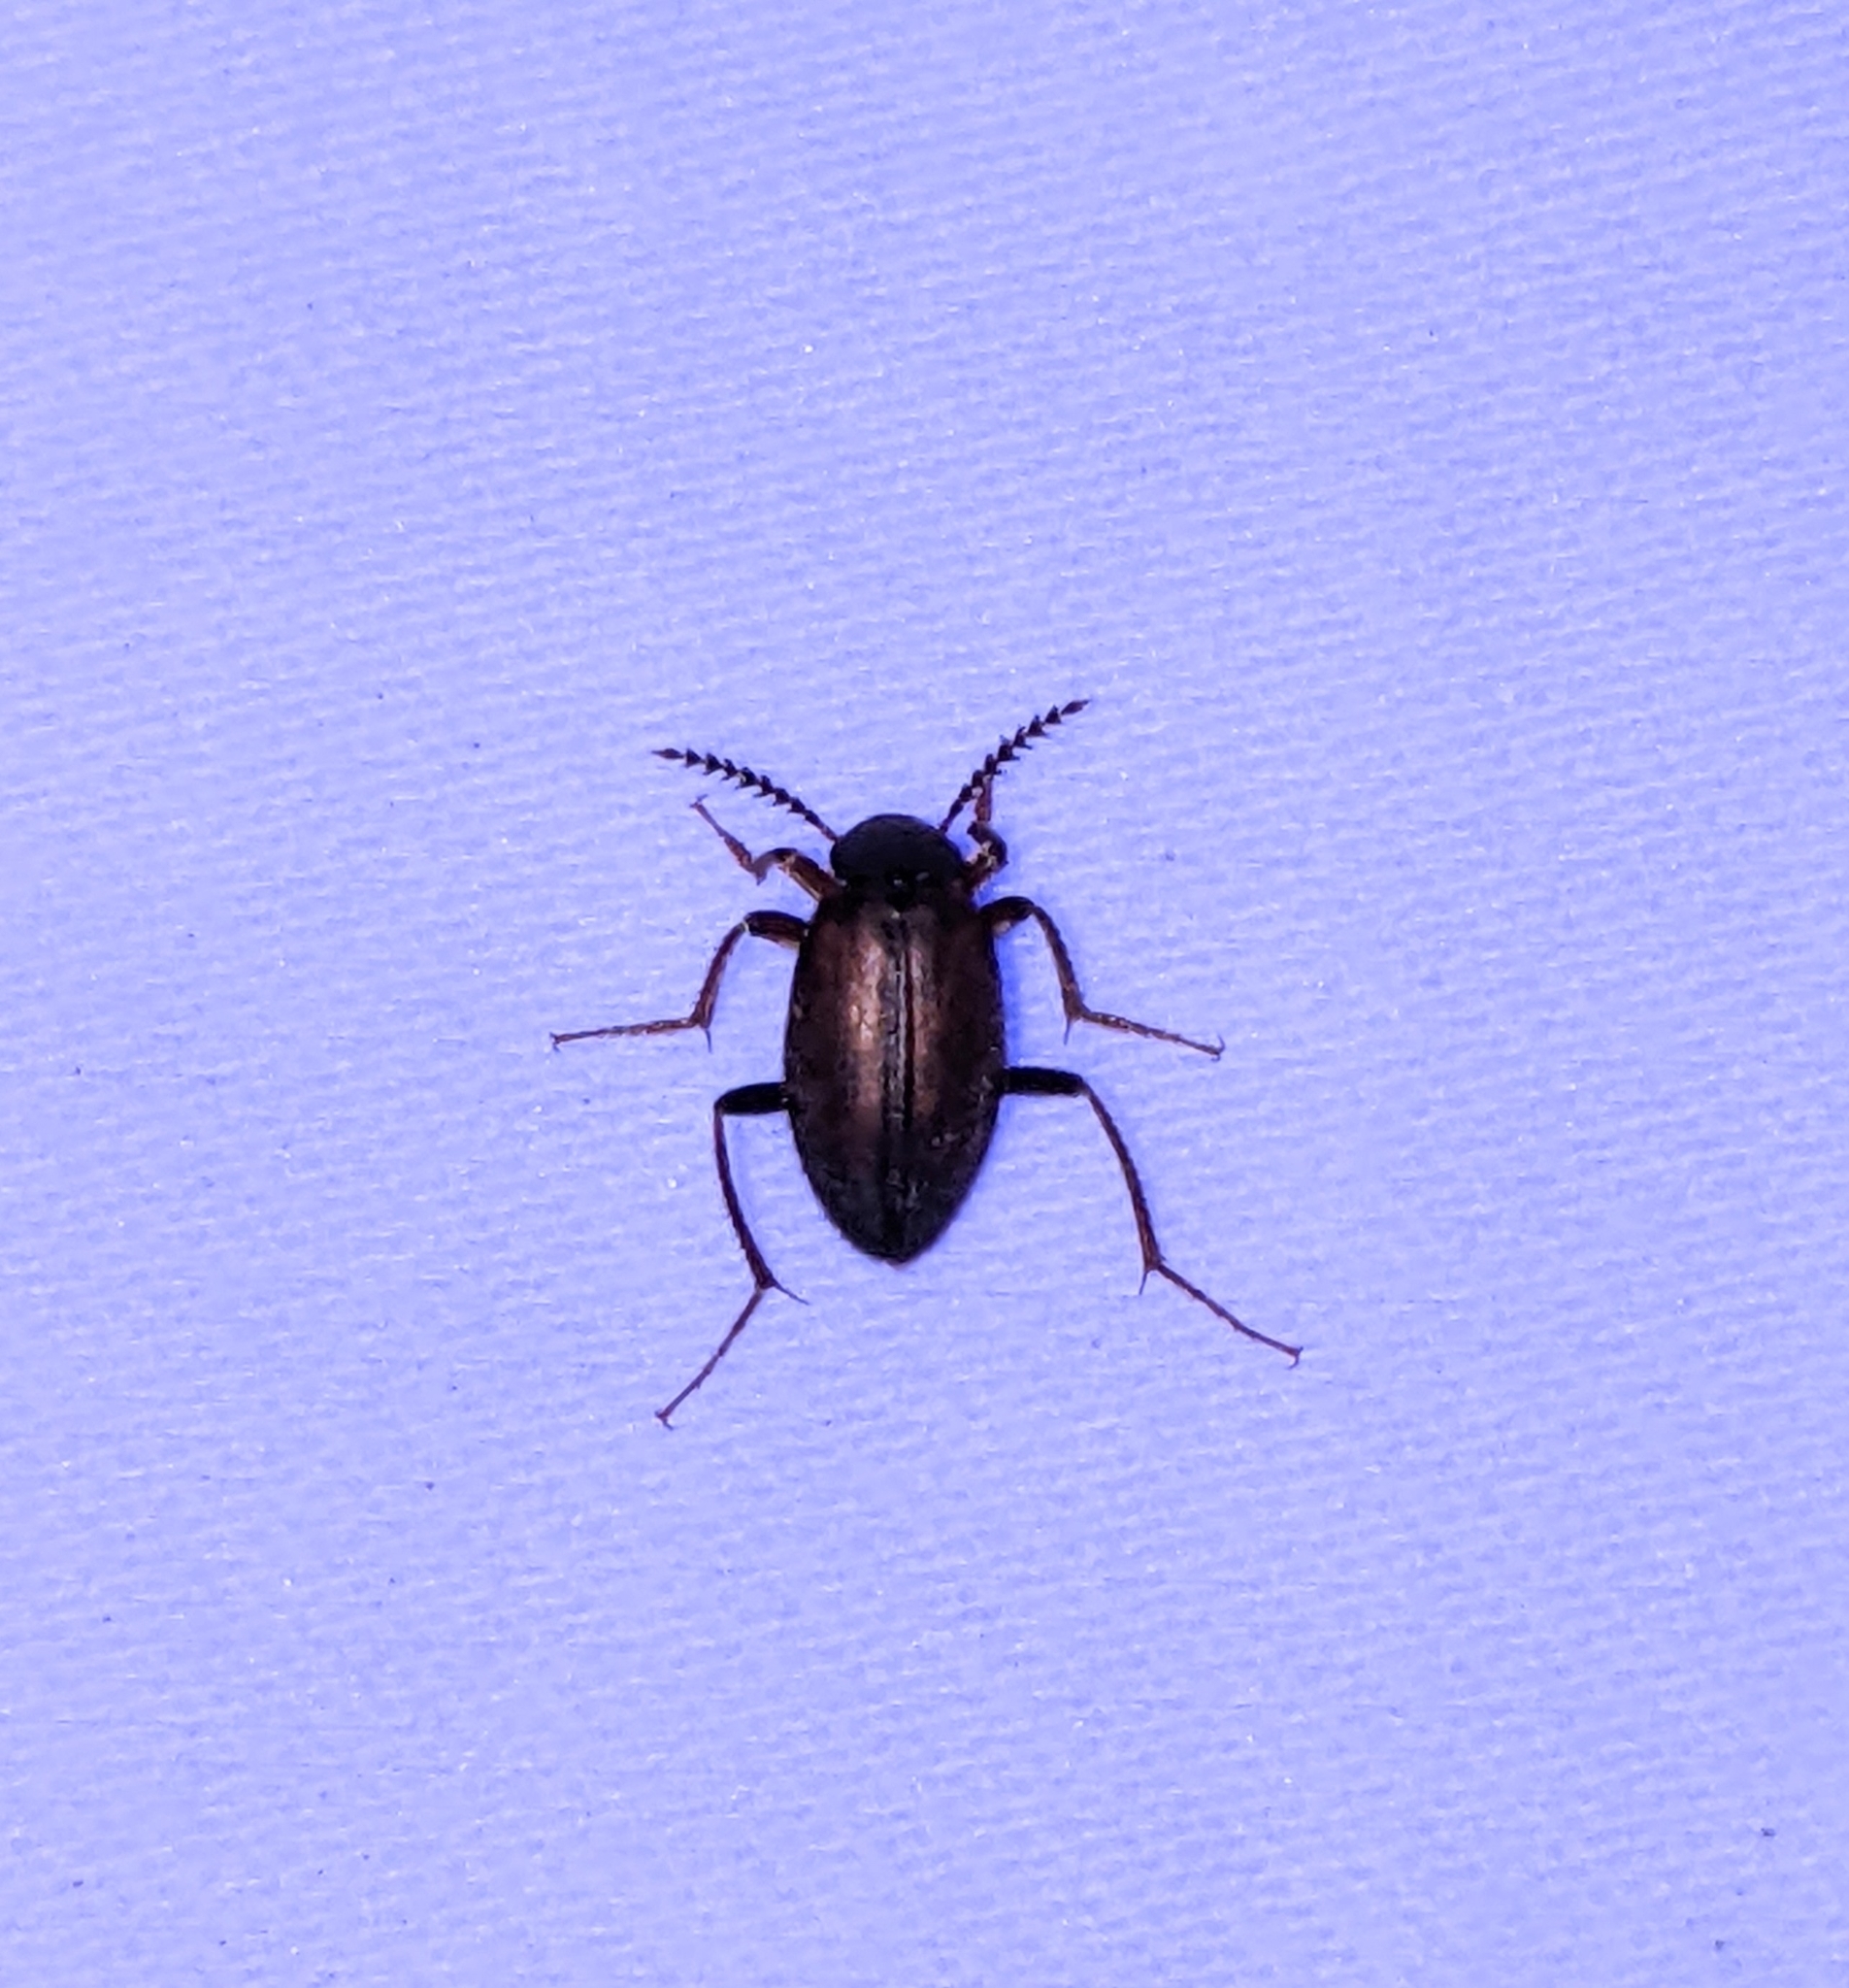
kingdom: Animalia
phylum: Arthropoda
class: Insecta
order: Coleoptera
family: Leiodidae
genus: Catoptrichus
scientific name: Catoptrichus frankenhaeuseri
